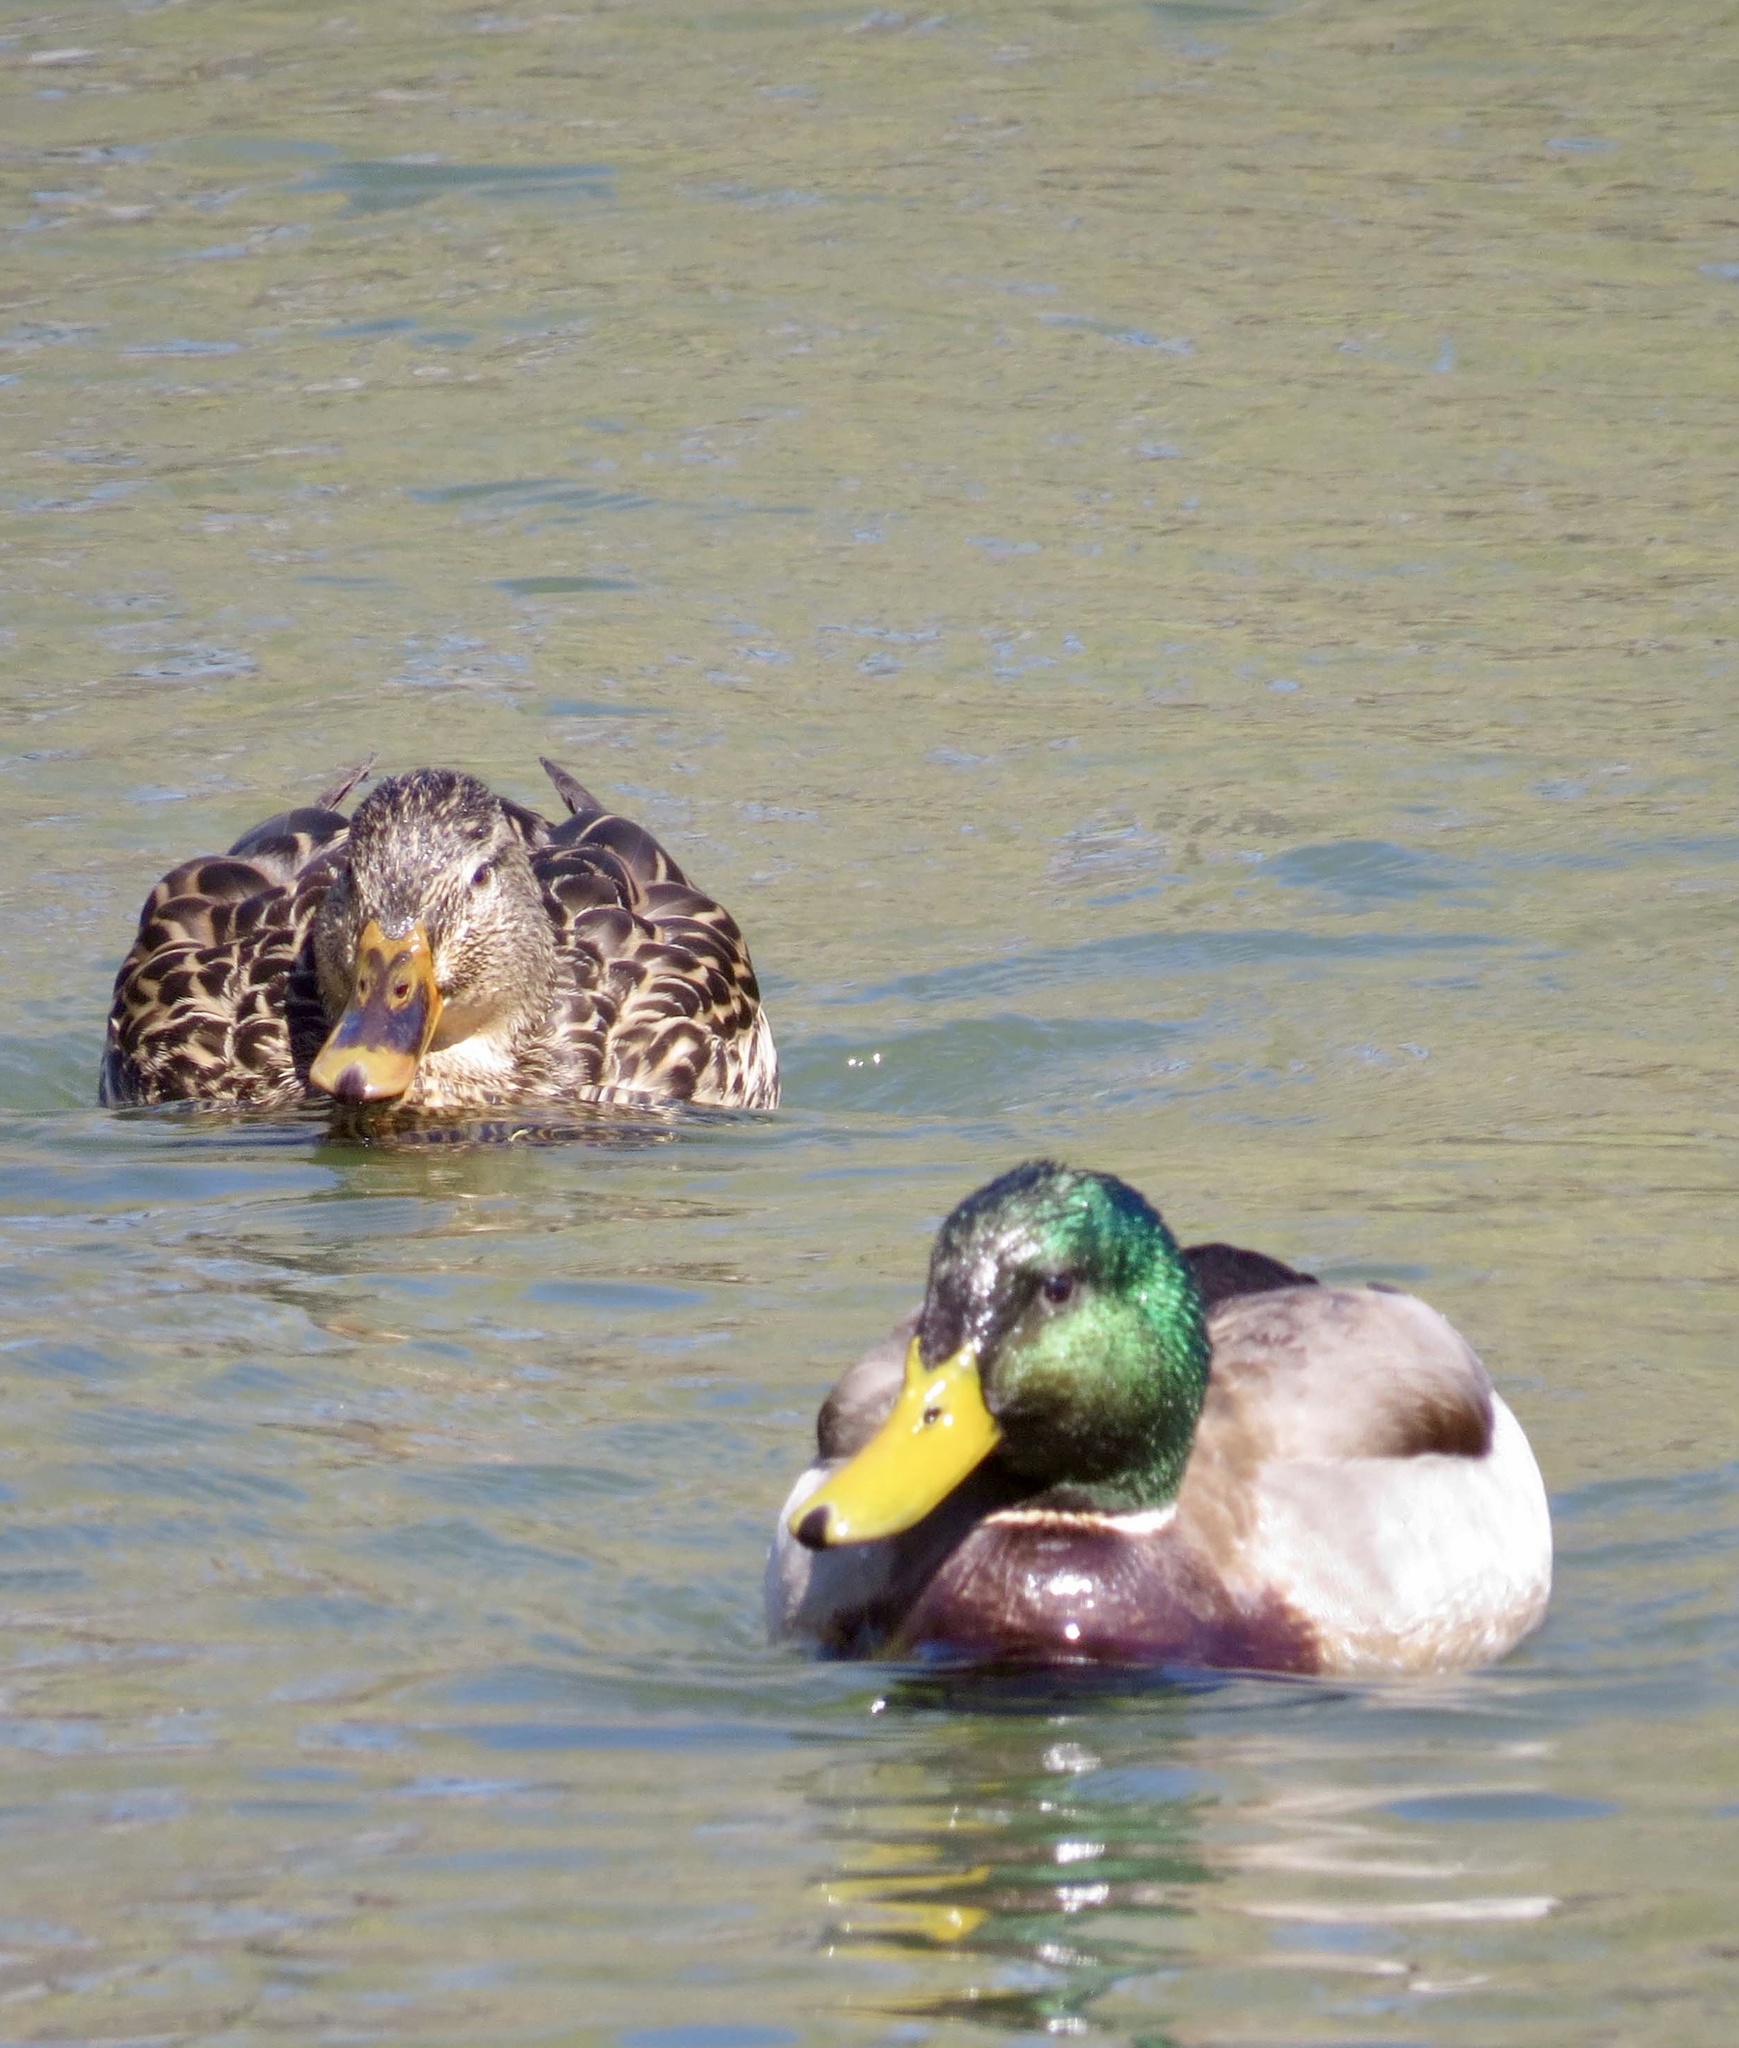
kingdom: Animalia
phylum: Chordata
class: Aves
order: Anseriformes
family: Anatidae
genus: Anas
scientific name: Anas platyrhynchos
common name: Mallard
